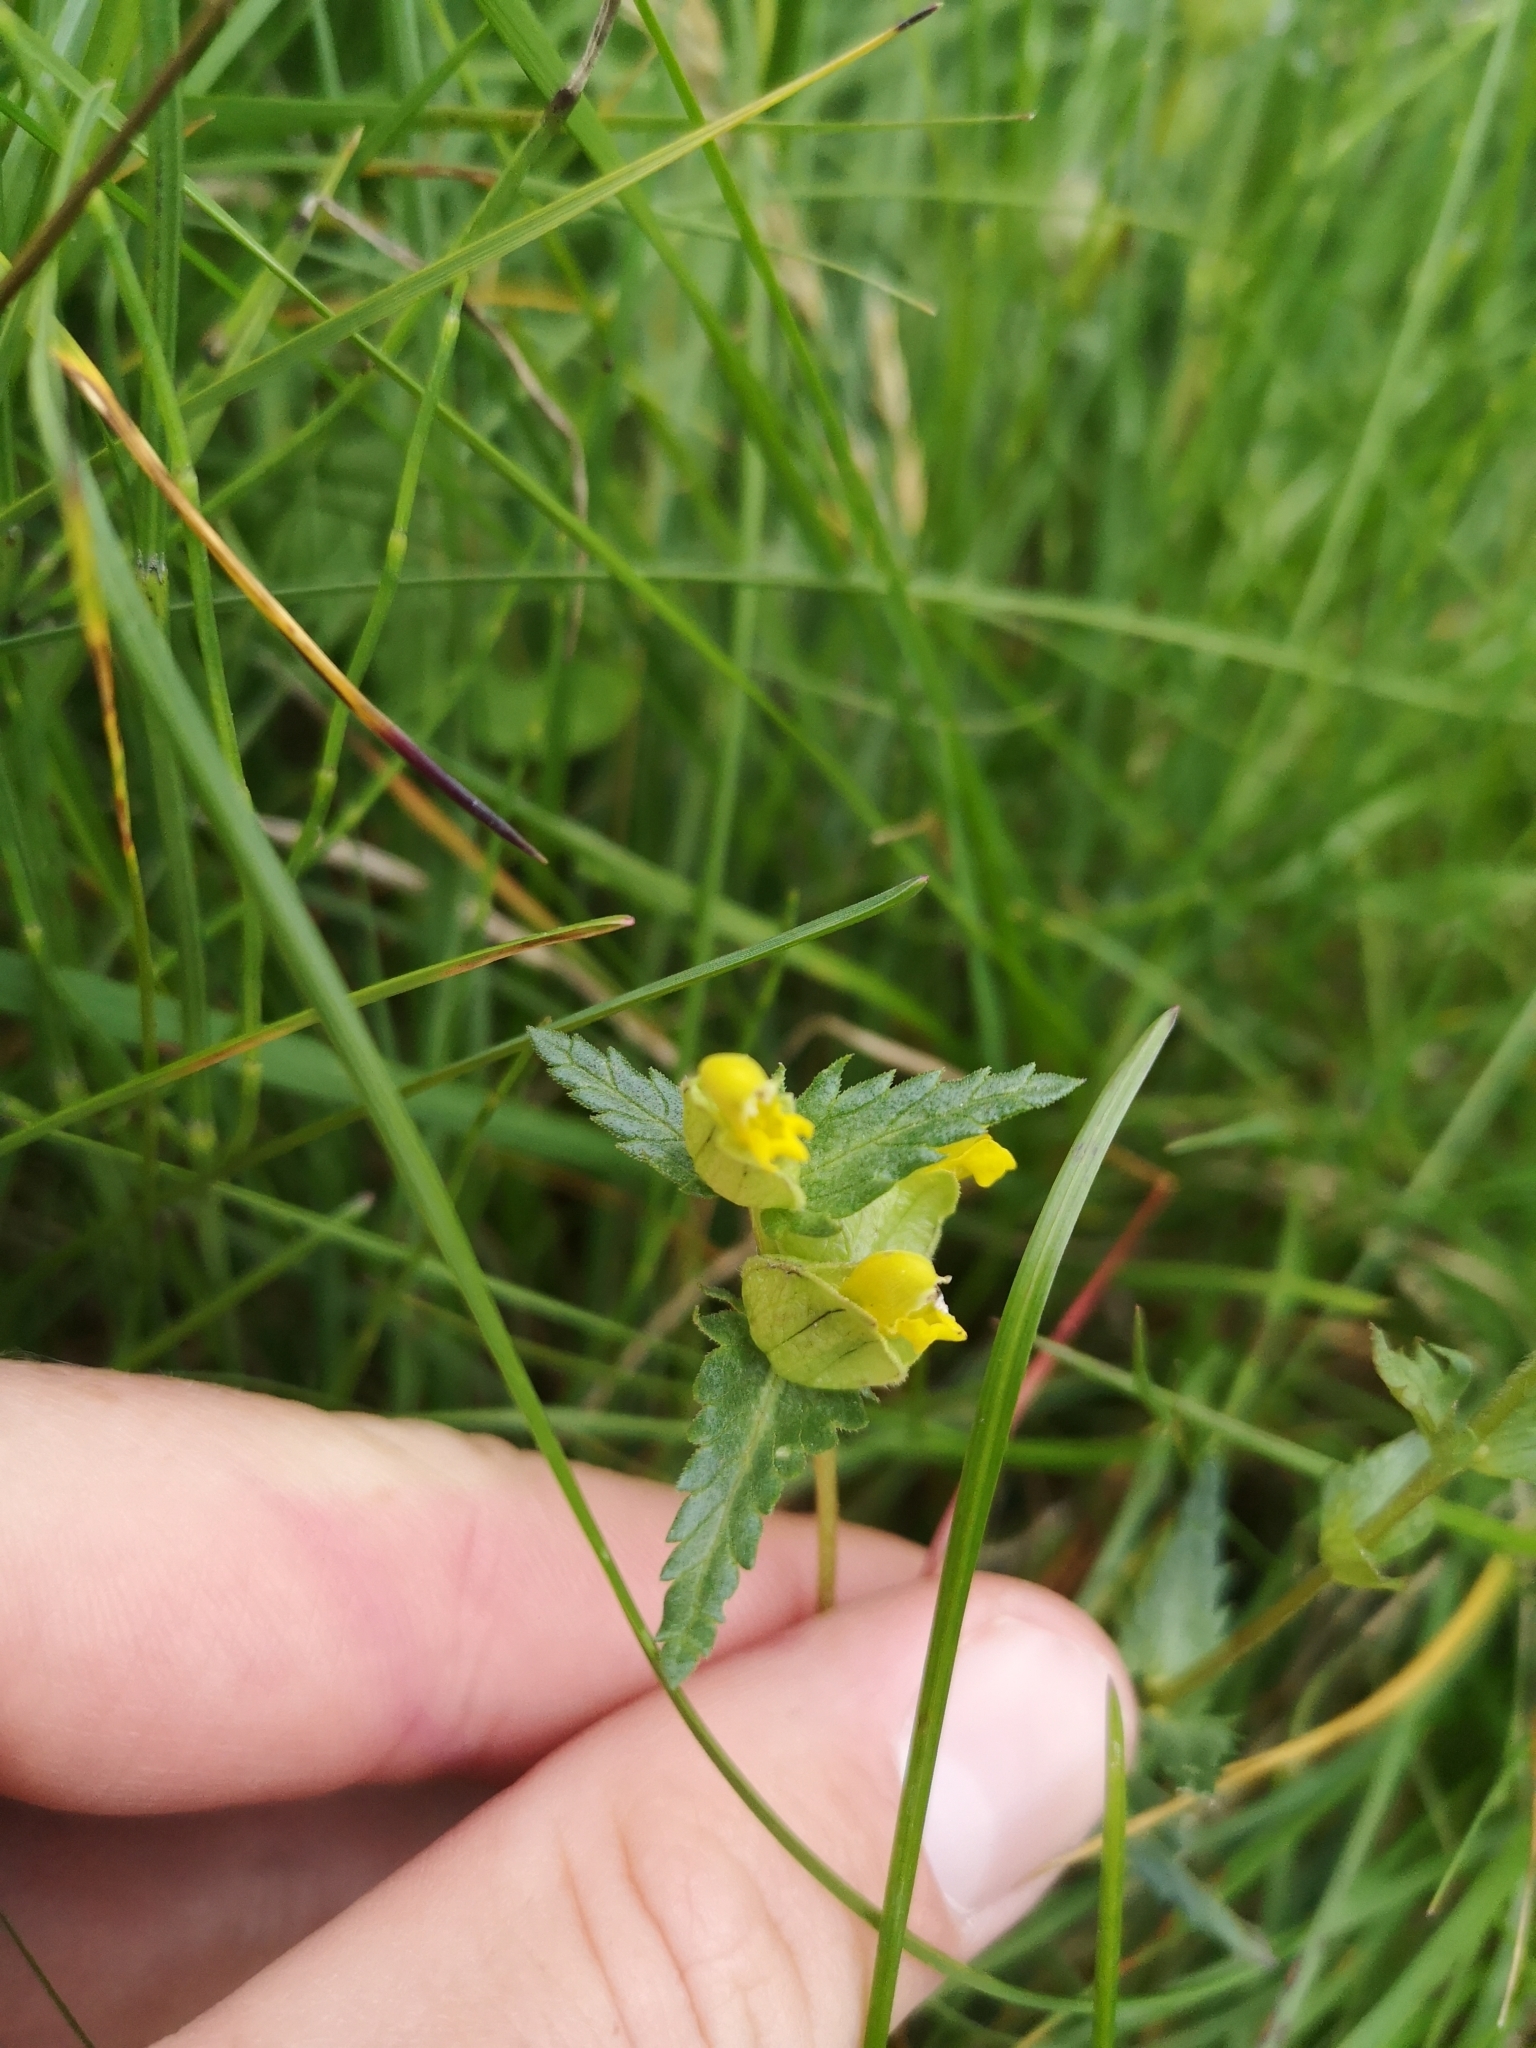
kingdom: Plantae
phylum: Tracheophyta
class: Magnoliopsida
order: Lamiales
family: Orobanchaceae
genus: Rhinanthus
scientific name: Rhinanthus minor
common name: Yellow-rattle
